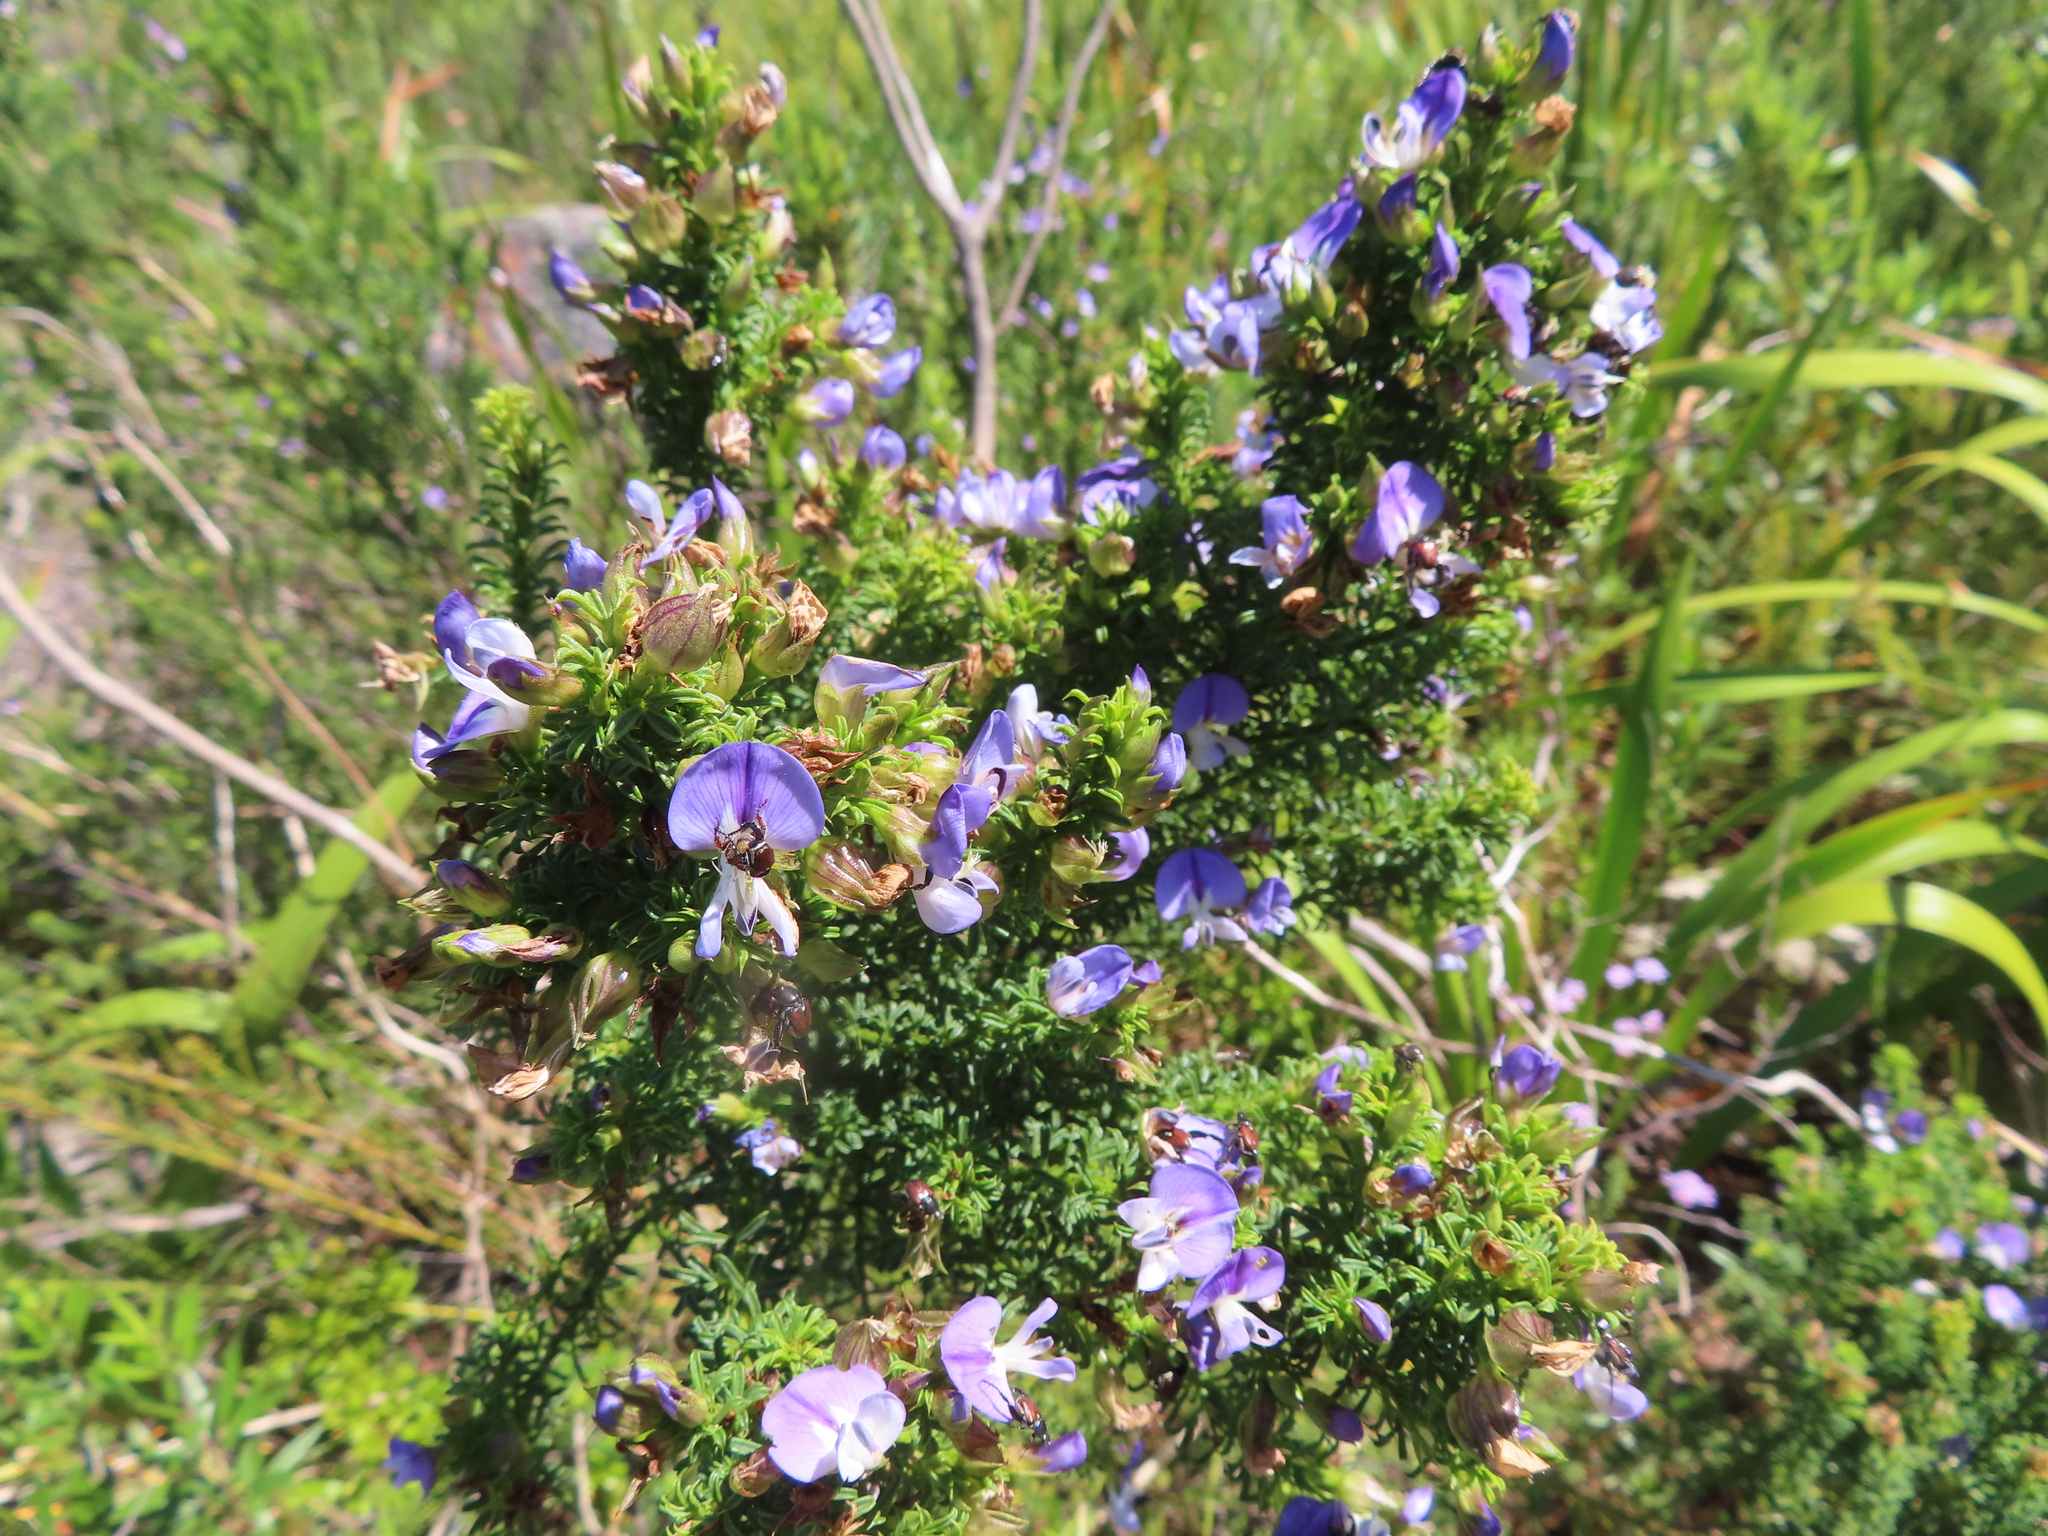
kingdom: Plantae
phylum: Tracheophyta
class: Magnoliopsida
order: Fabales
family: Fabaceae
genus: Psoralea
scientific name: Psoralea aculeata
